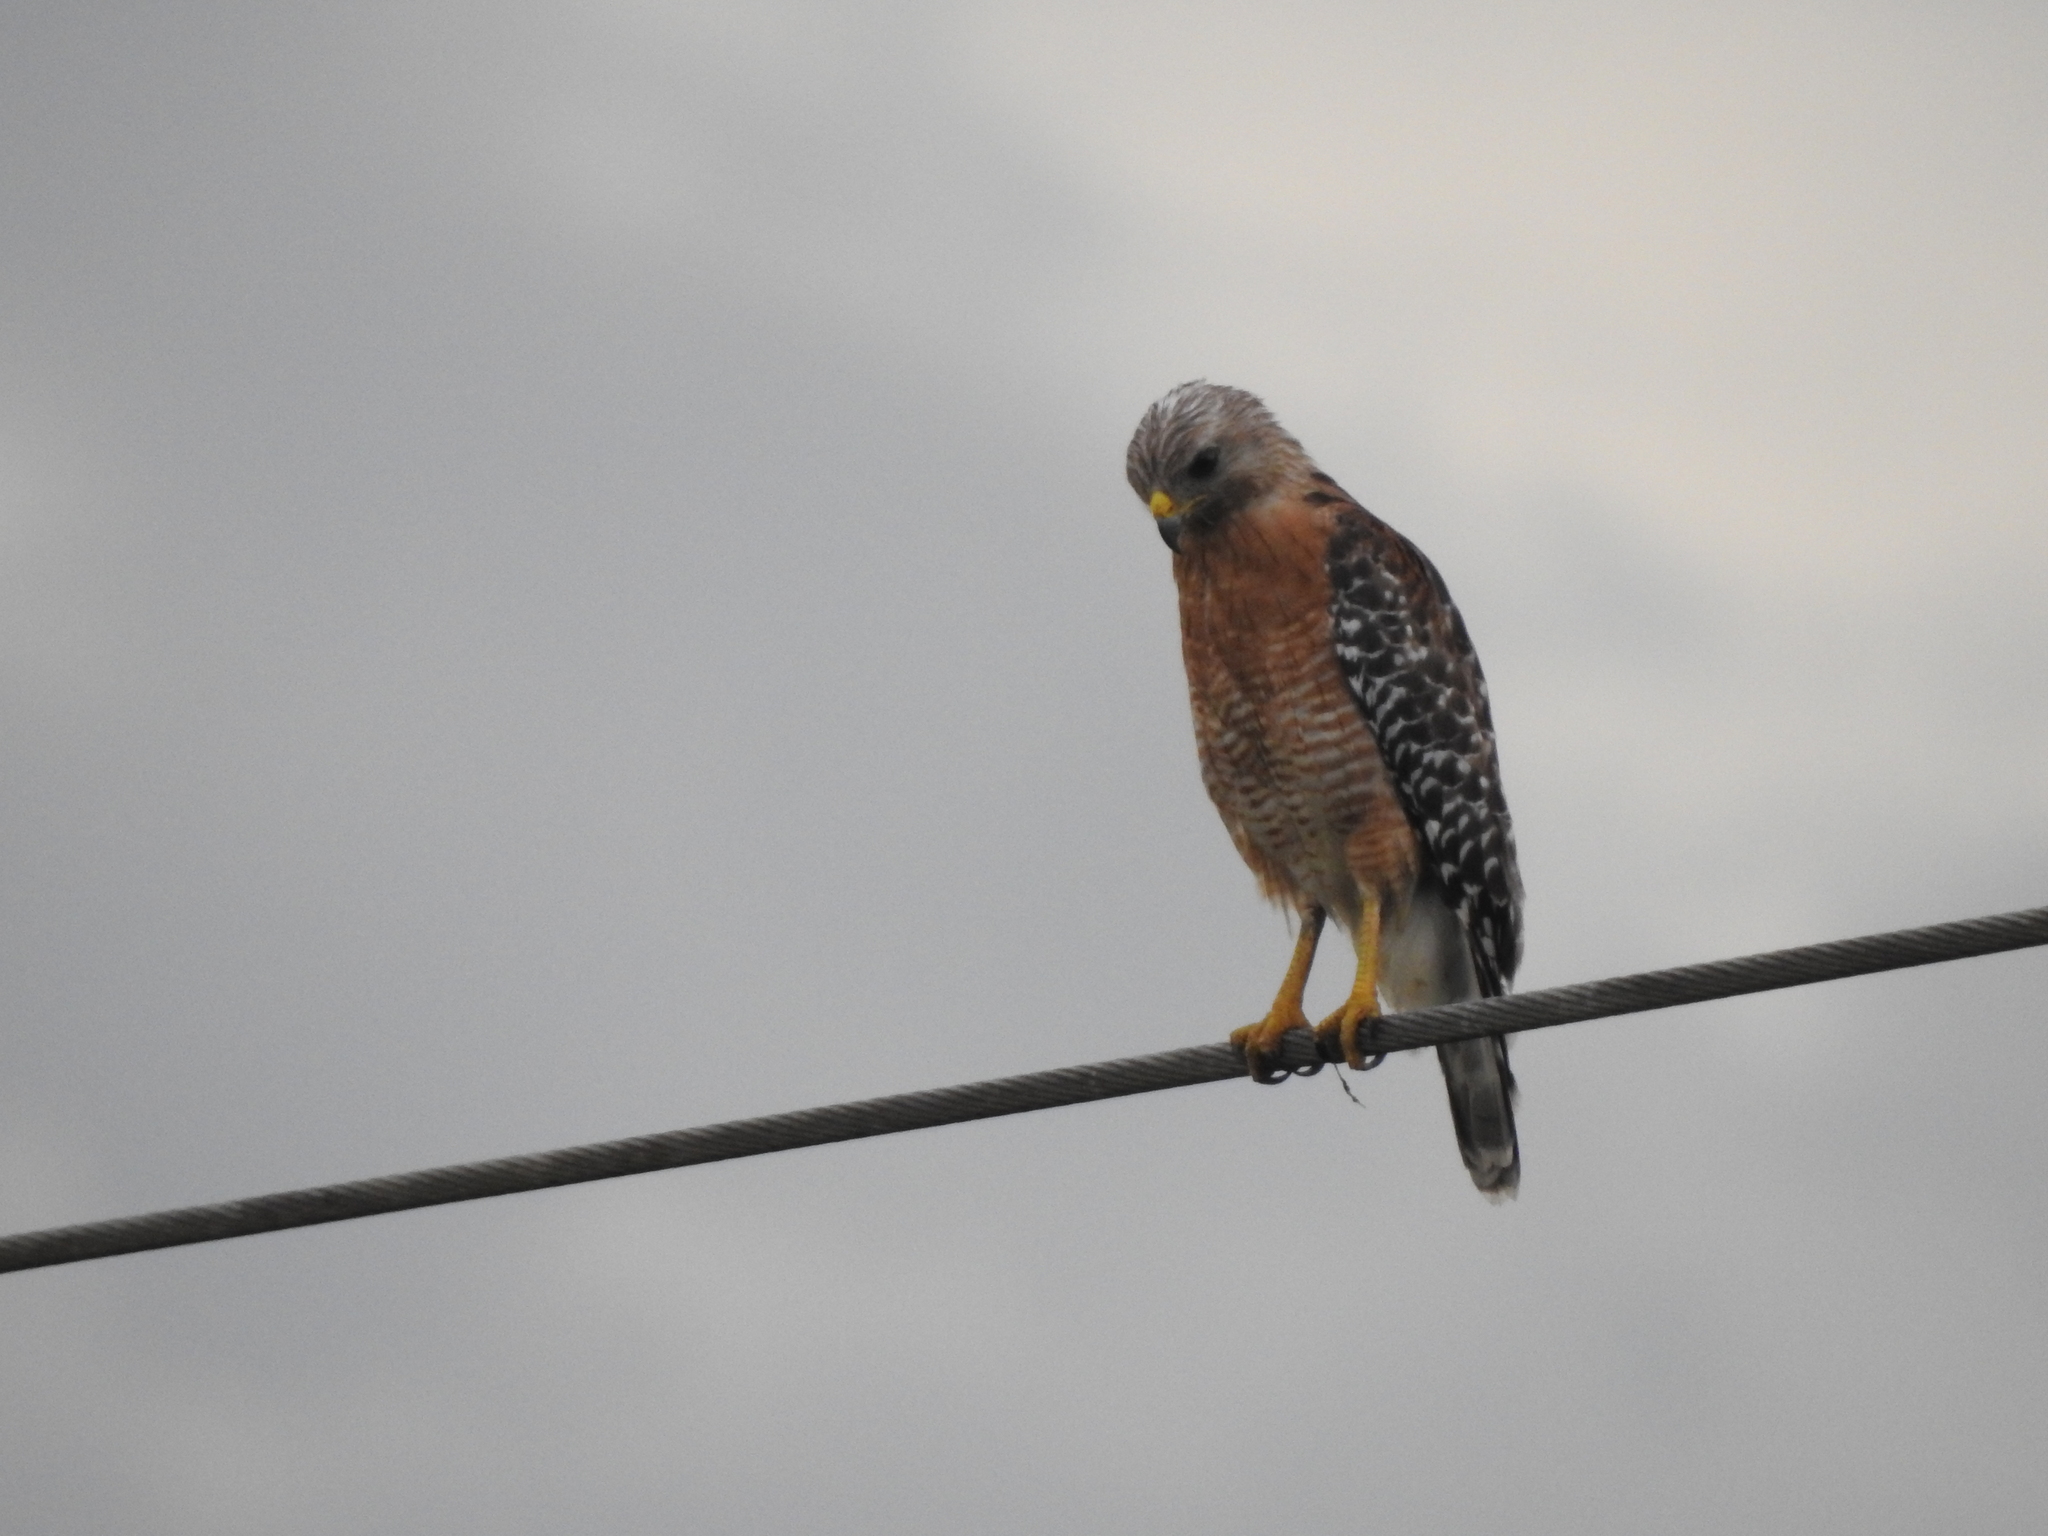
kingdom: Animalia
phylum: Chordata
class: Aves
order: Accipitriformes
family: Accipitridae
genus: Buteo
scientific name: Buteo lineatus
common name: Red-shouldered hawk
